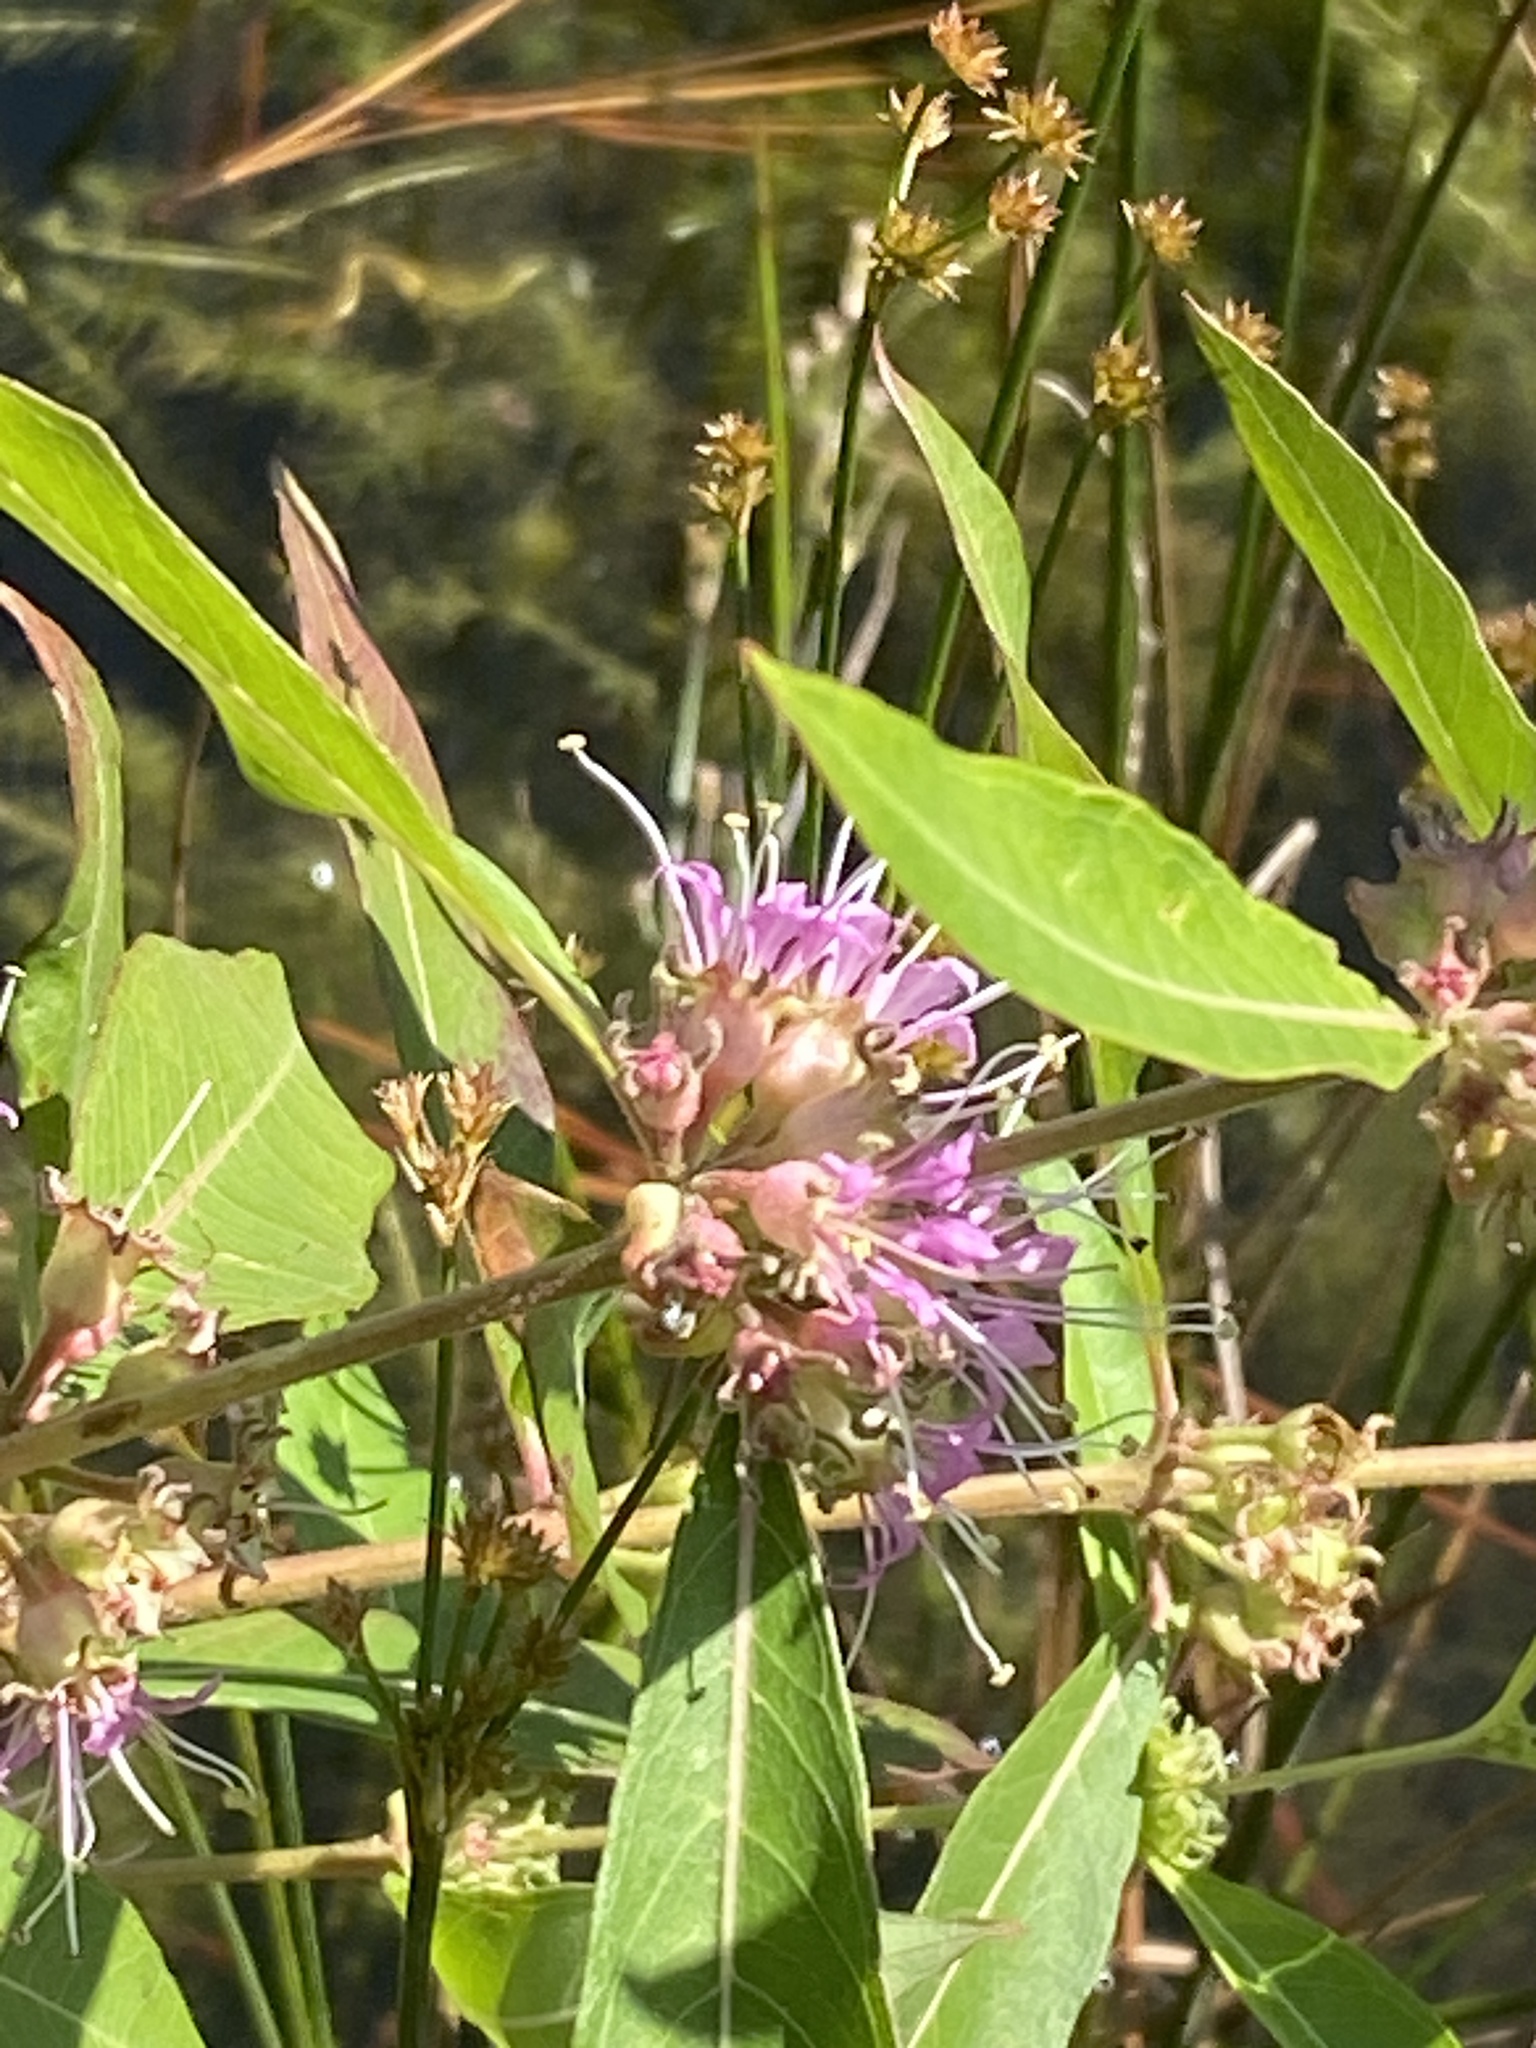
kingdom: Plantae
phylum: Tracheophyta
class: Magnoliopsida
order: Myrtales
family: Lythraceae
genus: Decodon
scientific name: Decodon verticillatus
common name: Hairy swamp loosestrife
